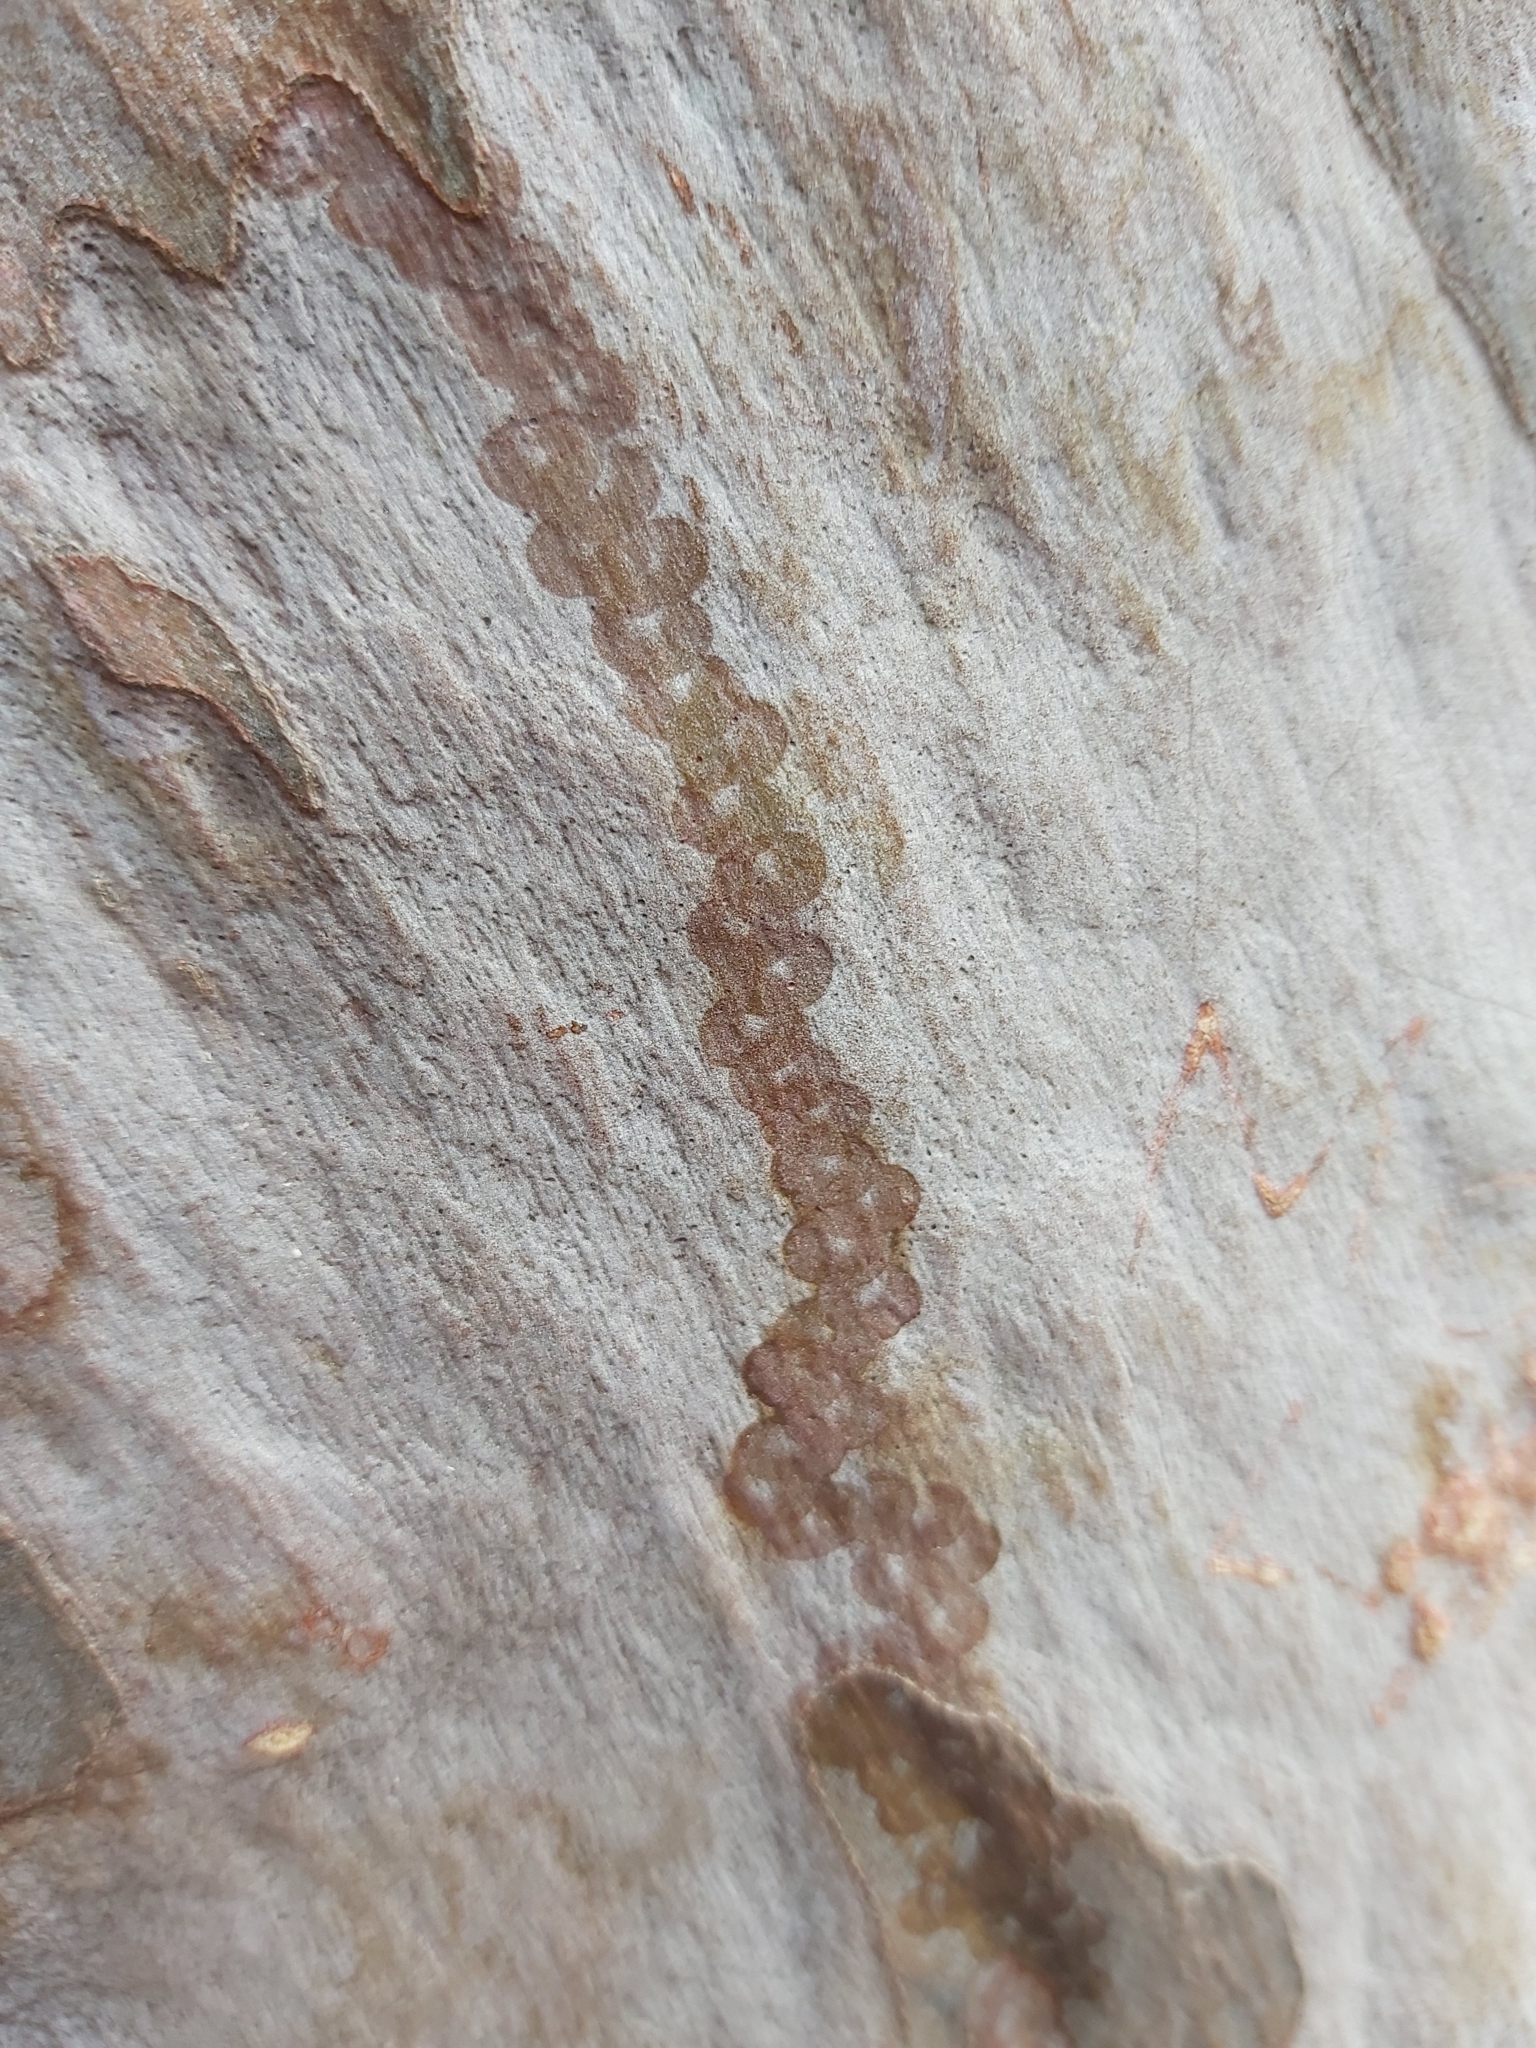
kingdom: Animalia
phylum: Mollusca
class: Gastropoda
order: Stylommatophora
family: Athoracophoridae
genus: Triboniophorus
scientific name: Triboniophorus graeffei
